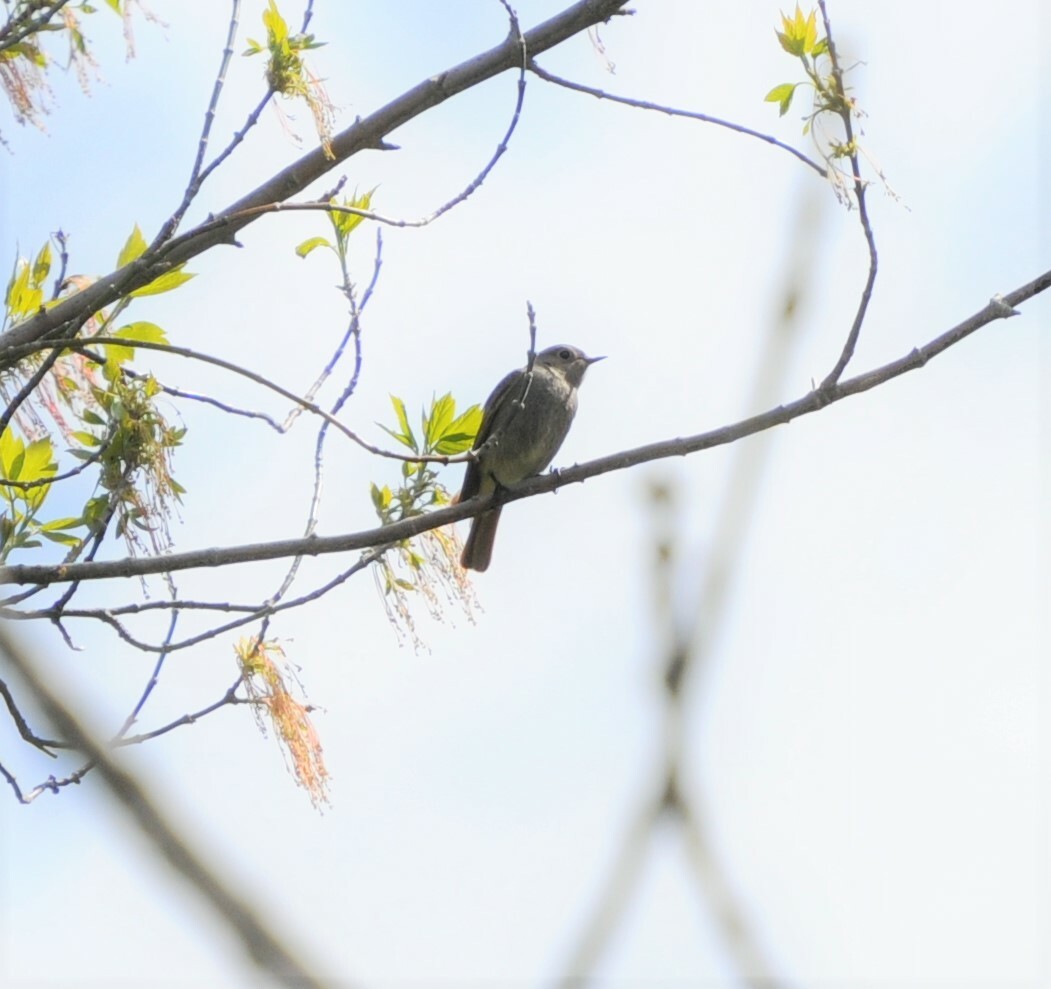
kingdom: Animalia
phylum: Chordata
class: Aves
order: Passeriformes
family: Muscicapidae
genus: Phoenicurus
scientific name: Phoenicurus ochruros
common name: Black redstart
